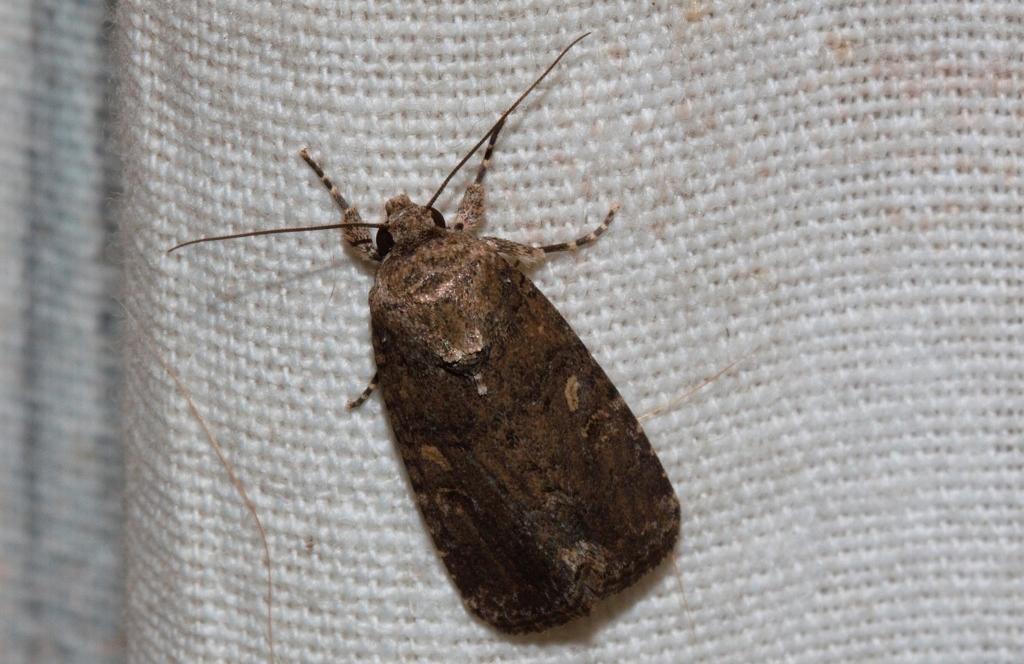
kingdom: Animalia
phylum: Arthropoda
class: Insecta
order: Lepidoptera
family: Noctuidae
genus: Spodoptera
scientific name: Spodoptera cilium
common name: Dark mottled willow
